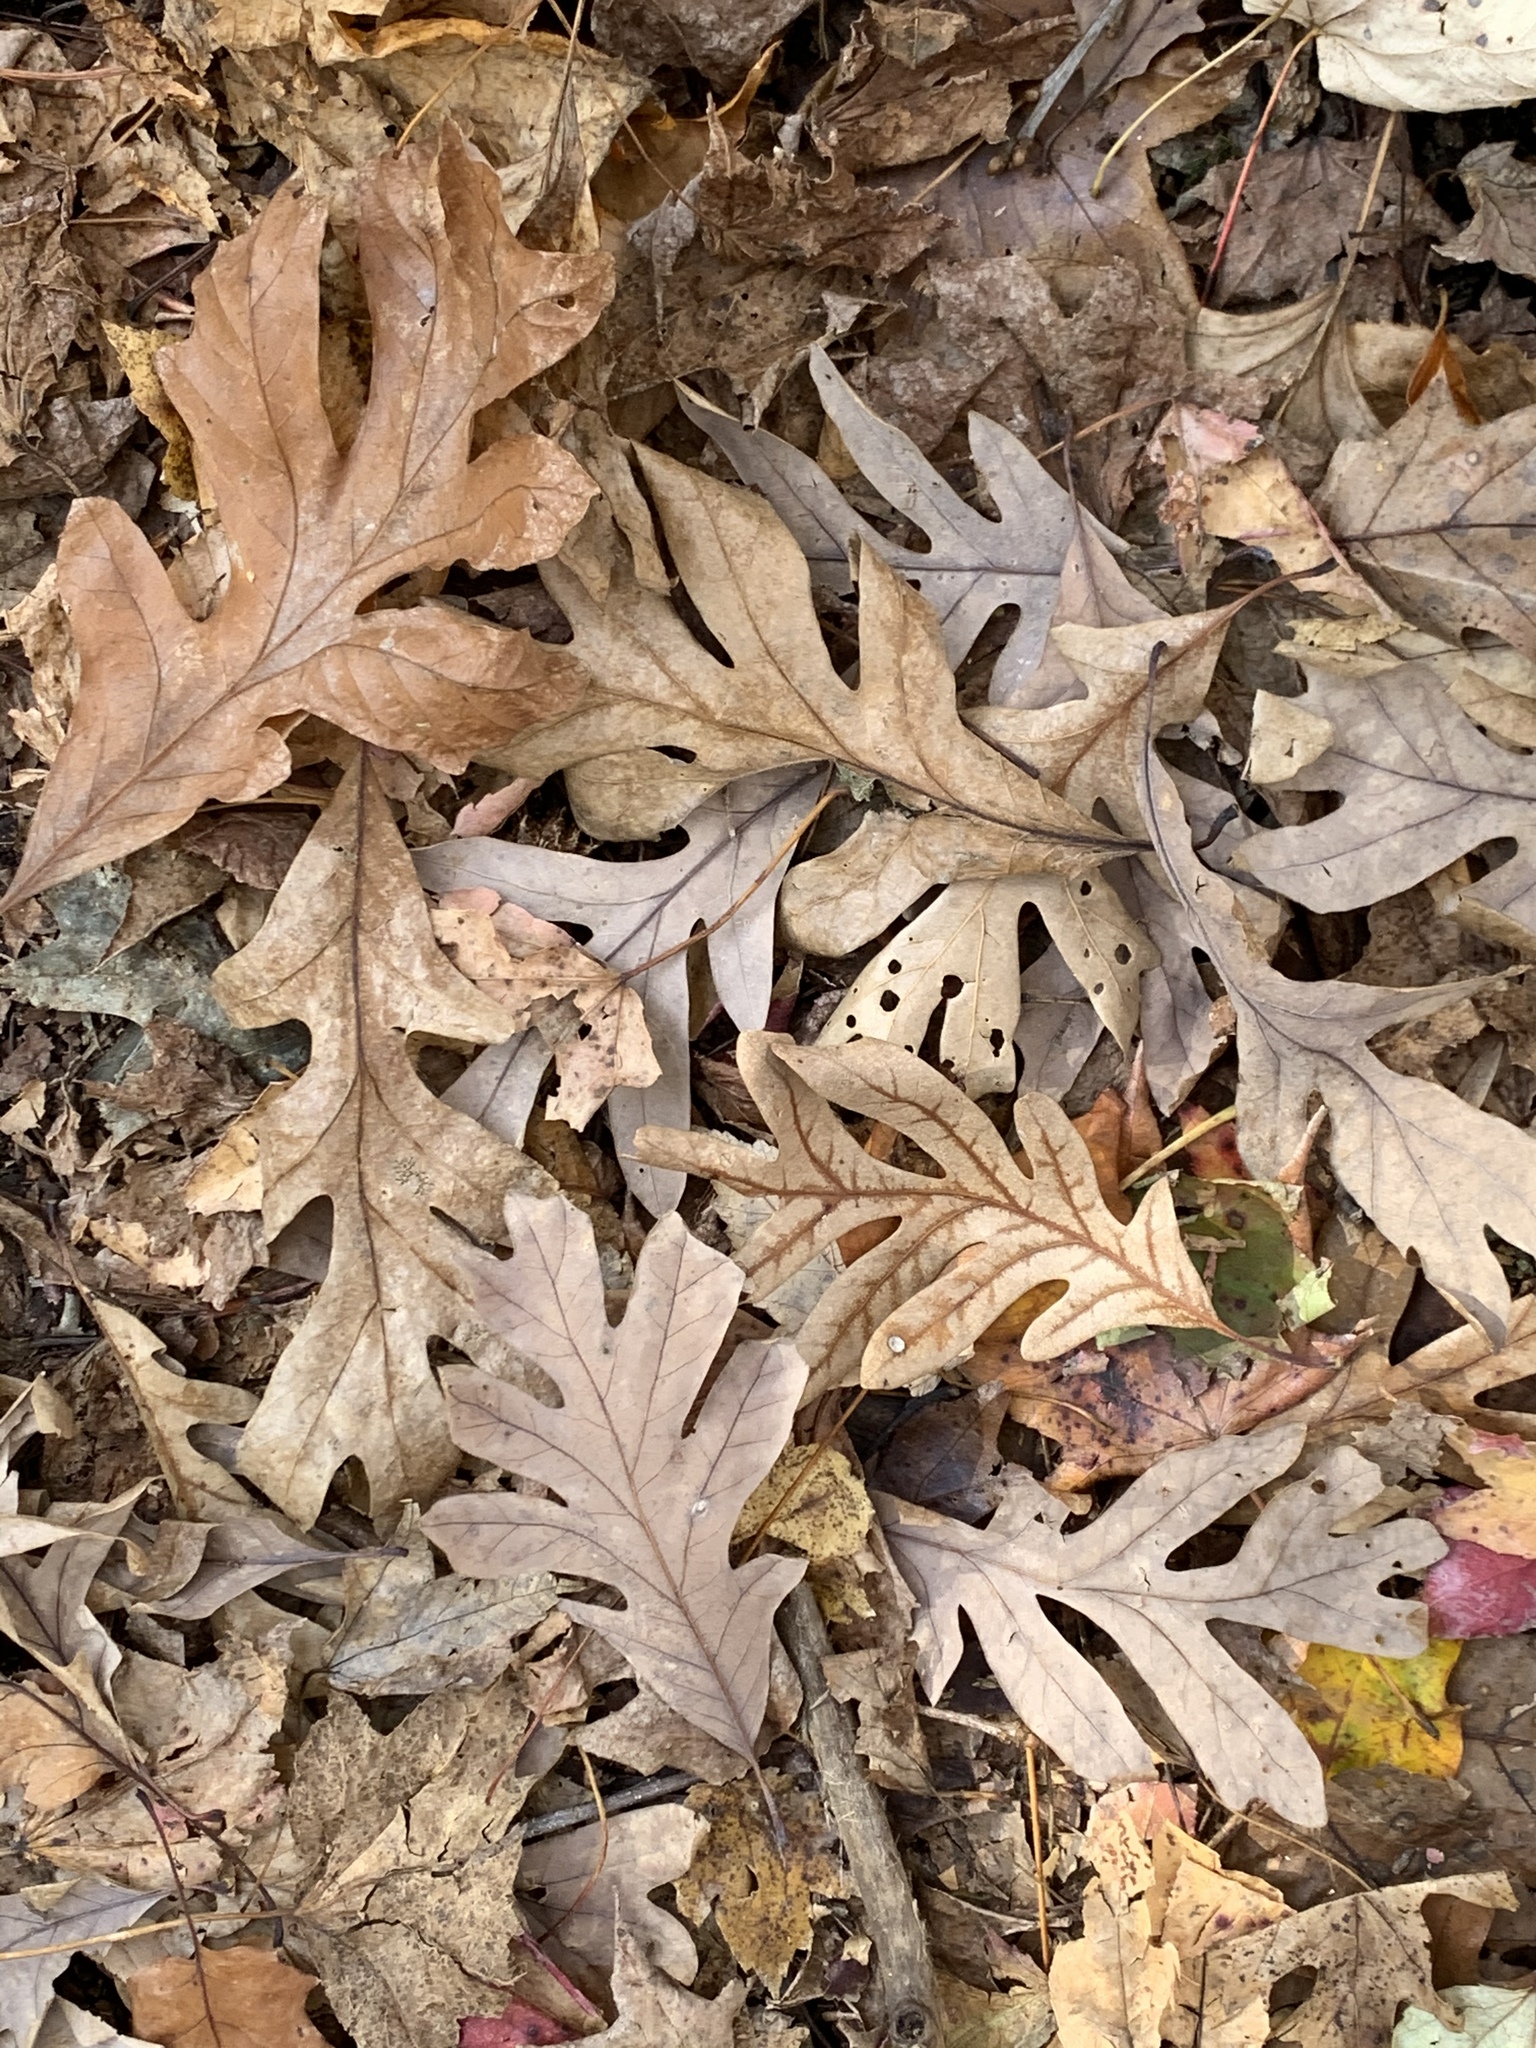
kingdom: Plantae
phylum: Tracheophyta
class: Magnoliopsida
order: Fagales
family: Fagaceae
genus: Quercus
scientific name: Quercus alba
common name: White oak
